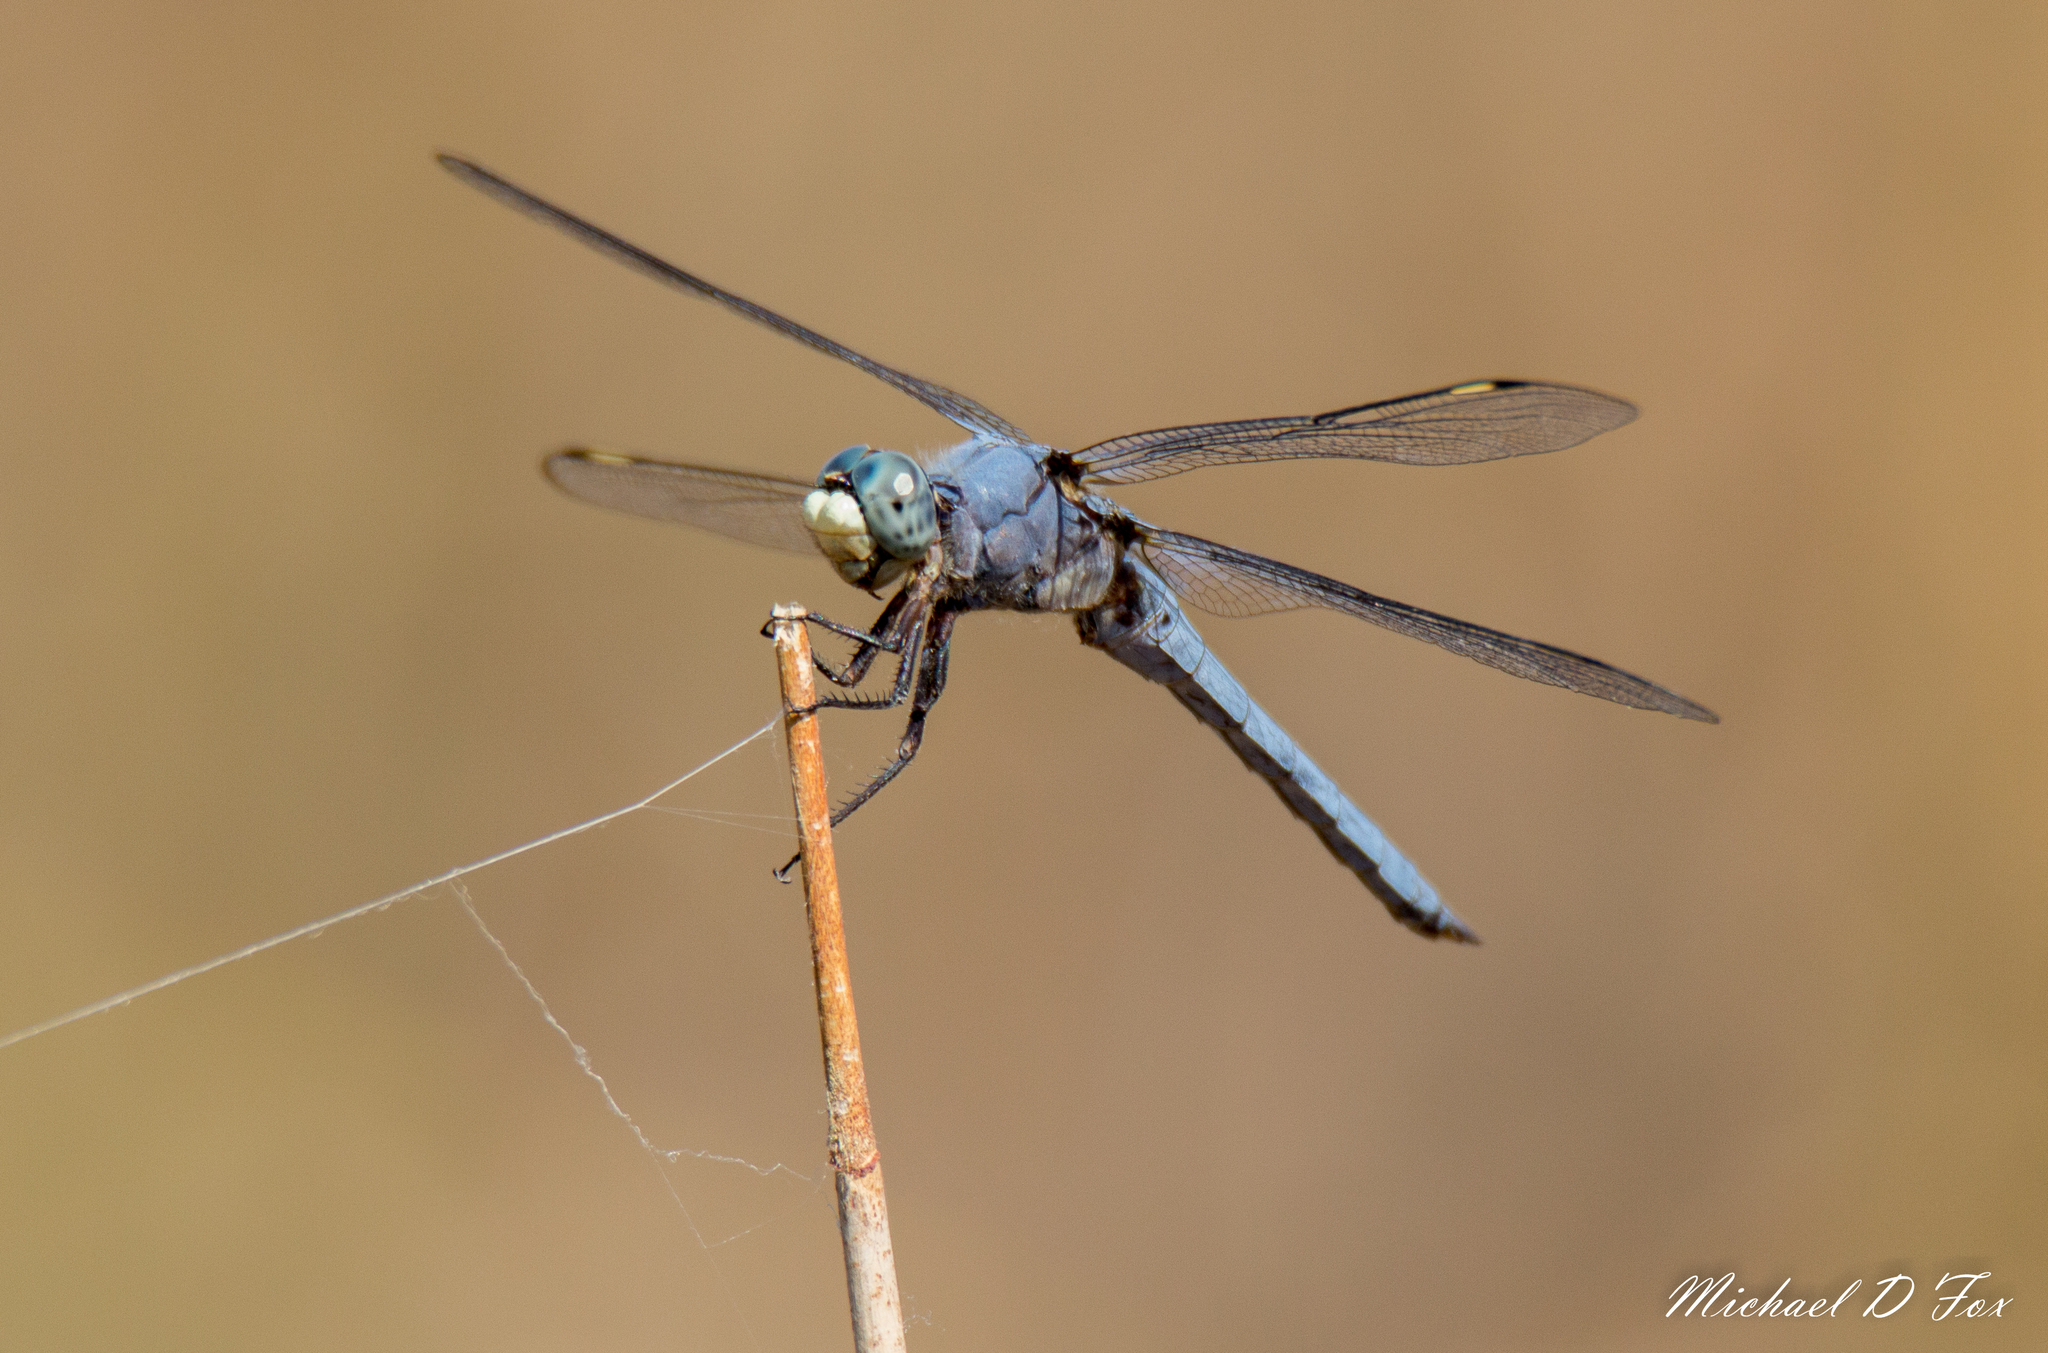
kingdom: Animalia
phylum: Arthropoda
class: Insecta
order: Odonata
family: Libellulidae
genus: Libellula
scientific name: Libellula comanche
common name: Comanche skimmer
